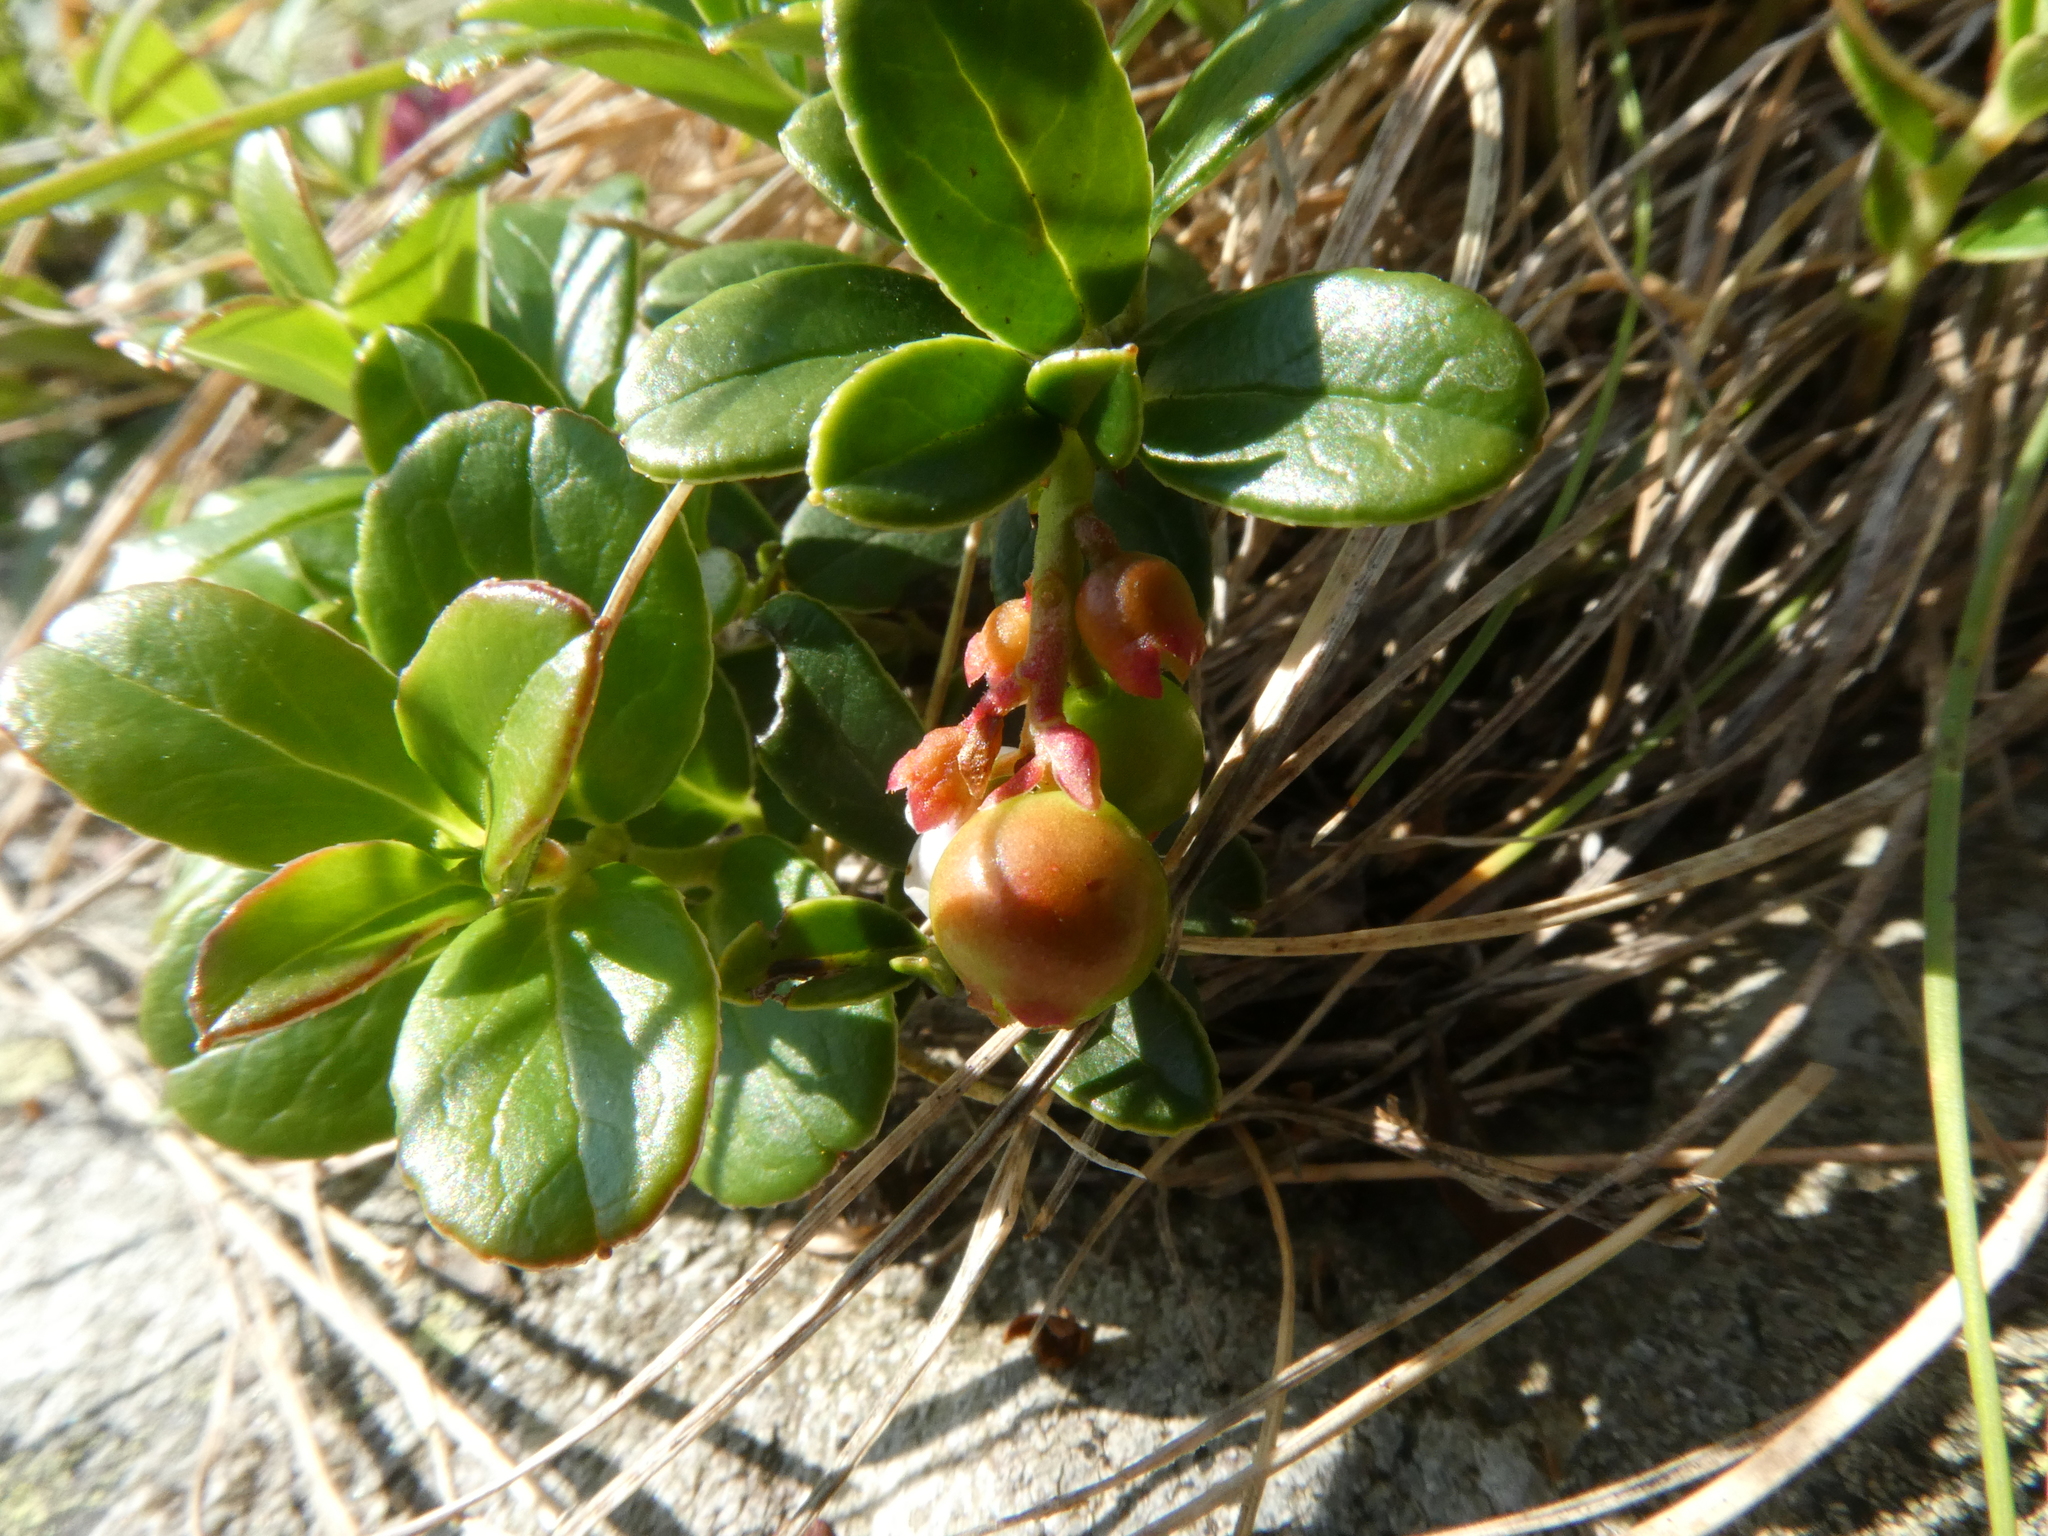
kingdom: Plantae
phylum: Tracheophyta
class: Magnoliopsida
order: Ericales
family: Ericaceae
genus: Vaccinium
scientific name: Vaccinium vitis-idaea
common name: Cowberry
